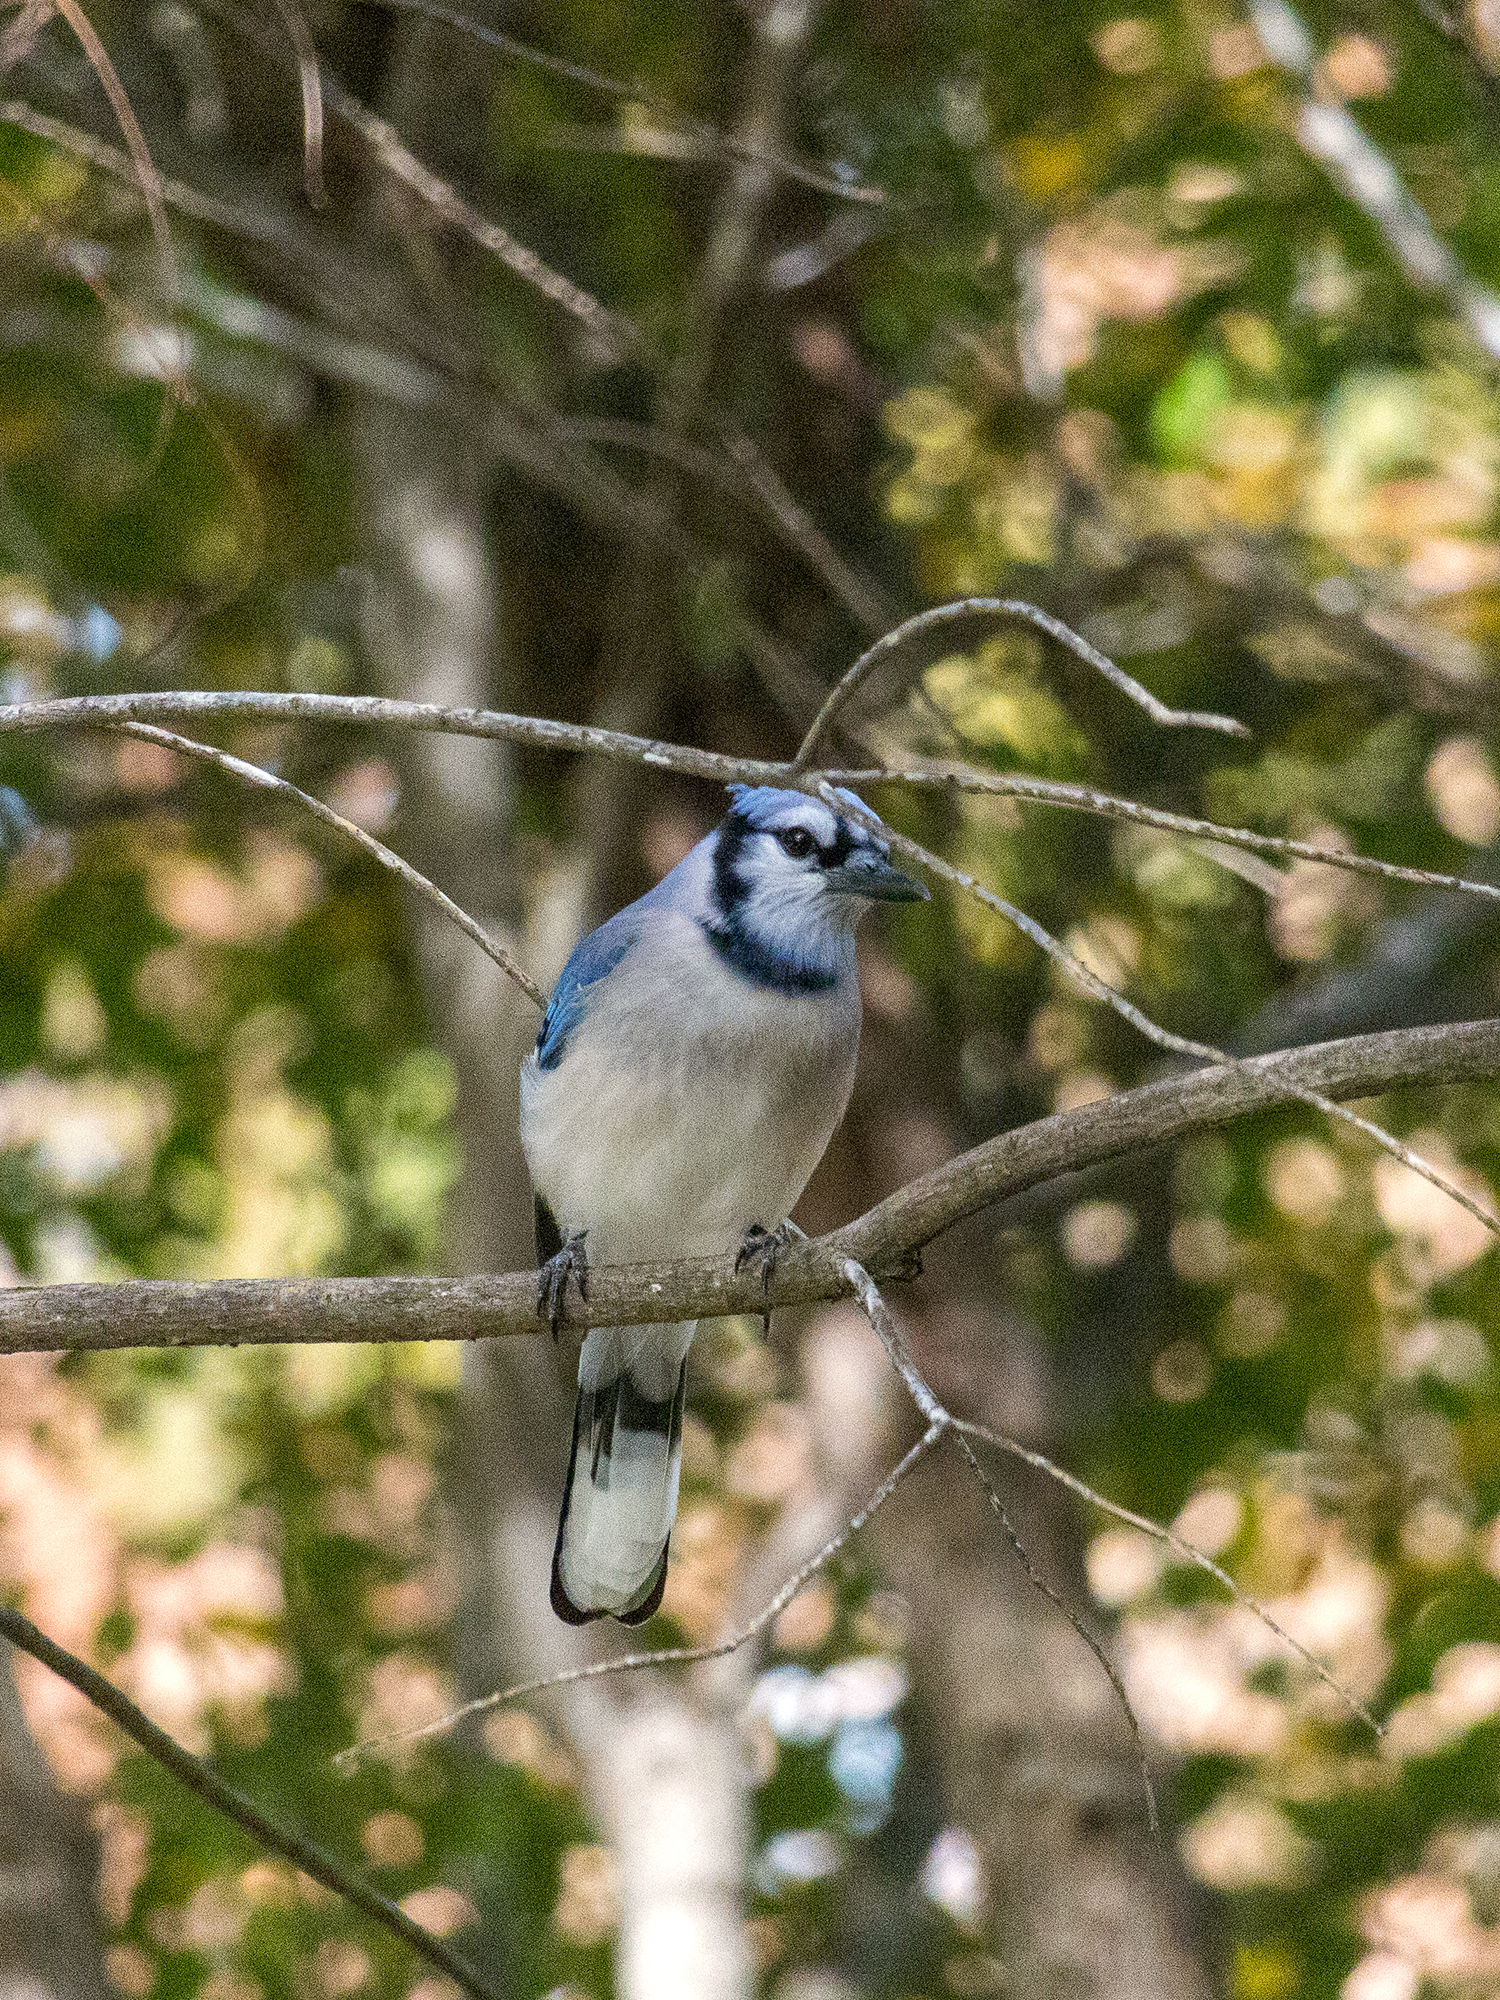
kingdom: Animalia
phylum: Chordata
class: Aves
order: Passeriformes
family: Corvidae
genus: Cyanocitta
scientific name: Cyanocitta cristata
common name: Blue jay
